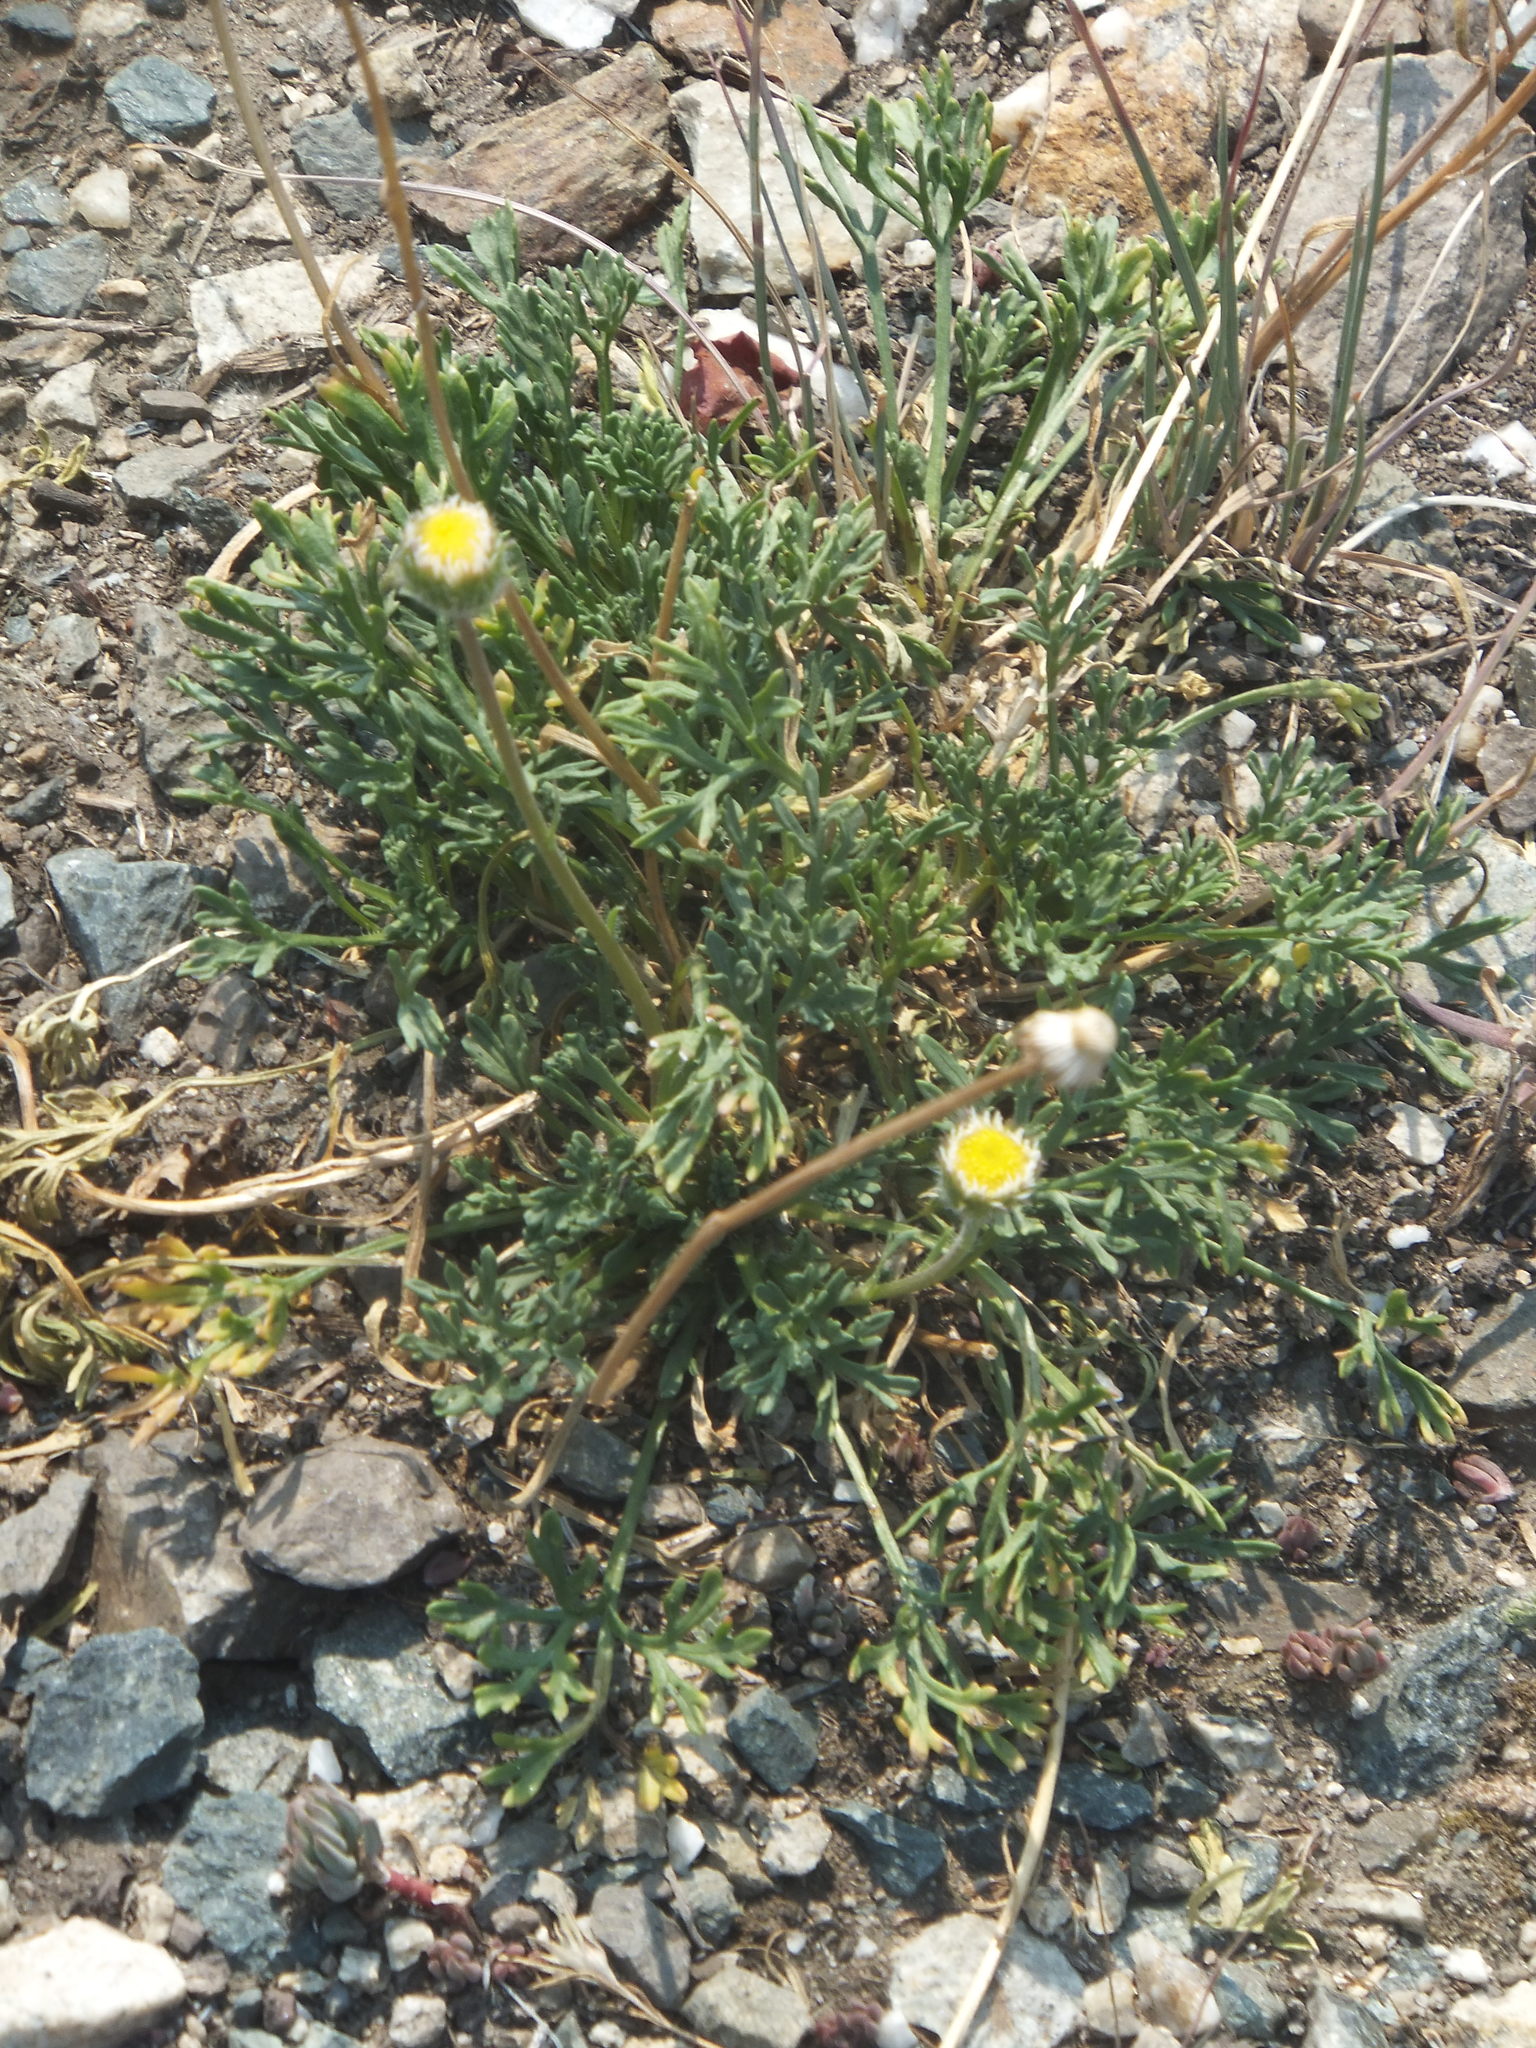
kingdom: Plantae
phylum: Tracheophyta
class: Magnoliopsida
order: Asterales
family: Asteraceae
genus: Erigeron
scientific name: Erigeron compositus
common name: Dwarf mountain fleabane
